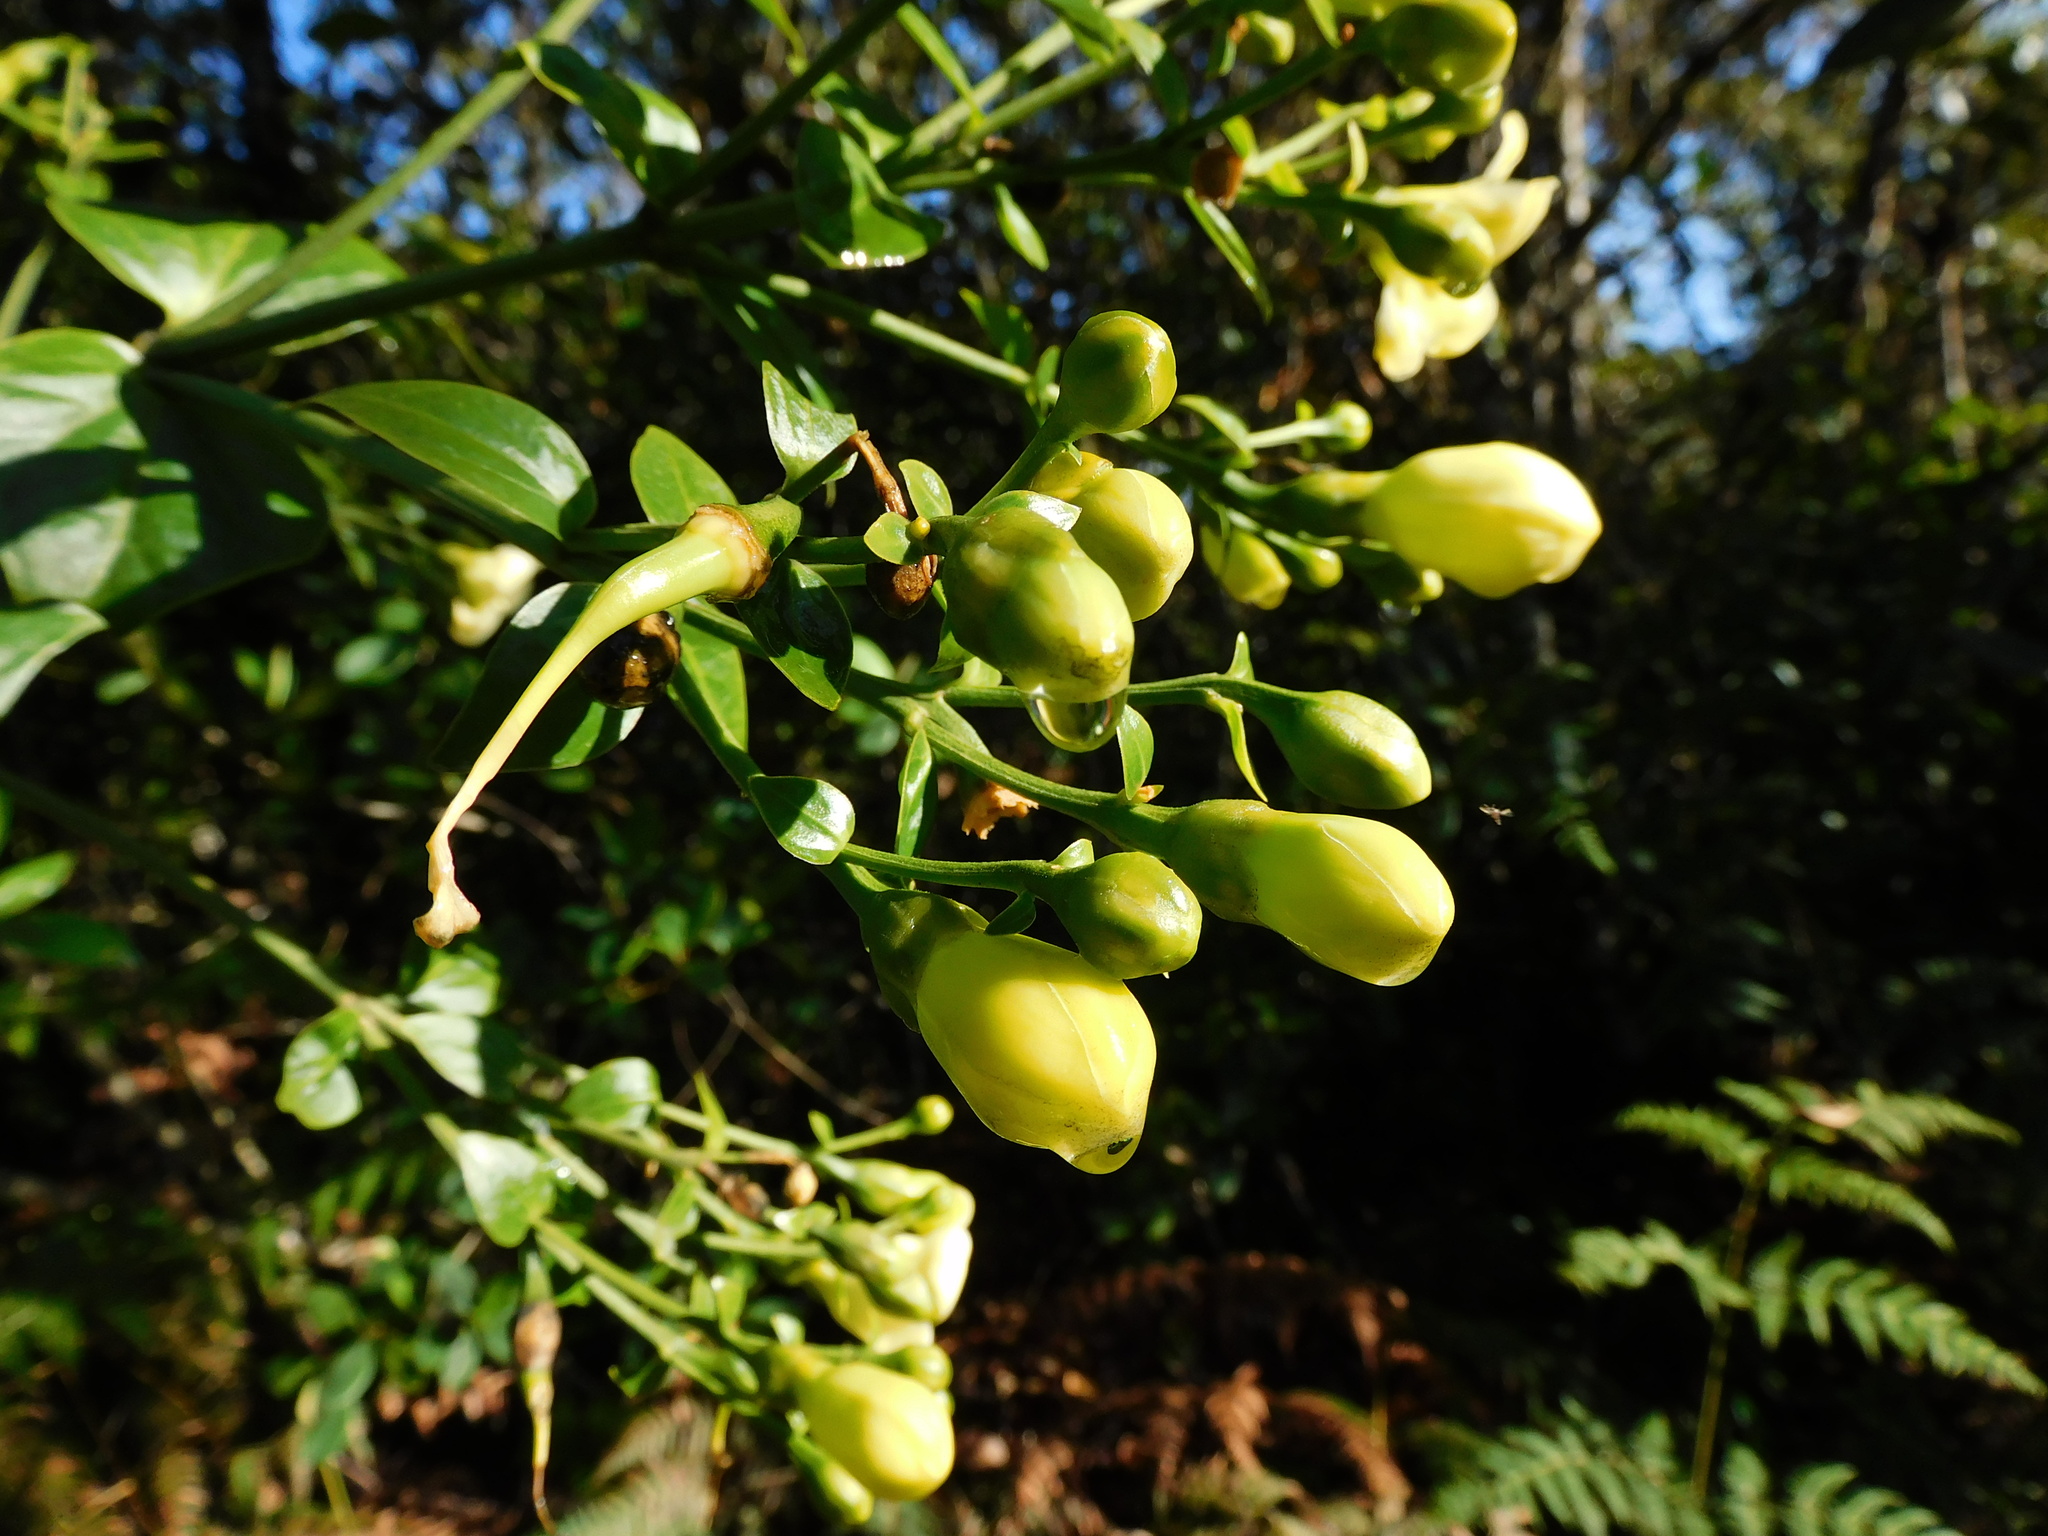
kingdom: Plantae
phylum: Tracheophyta
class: Magnoliopsida
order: Gentianales
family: Gentianaceae
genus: Macrocarpaea
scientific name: Macrocarpaea macrophylla
